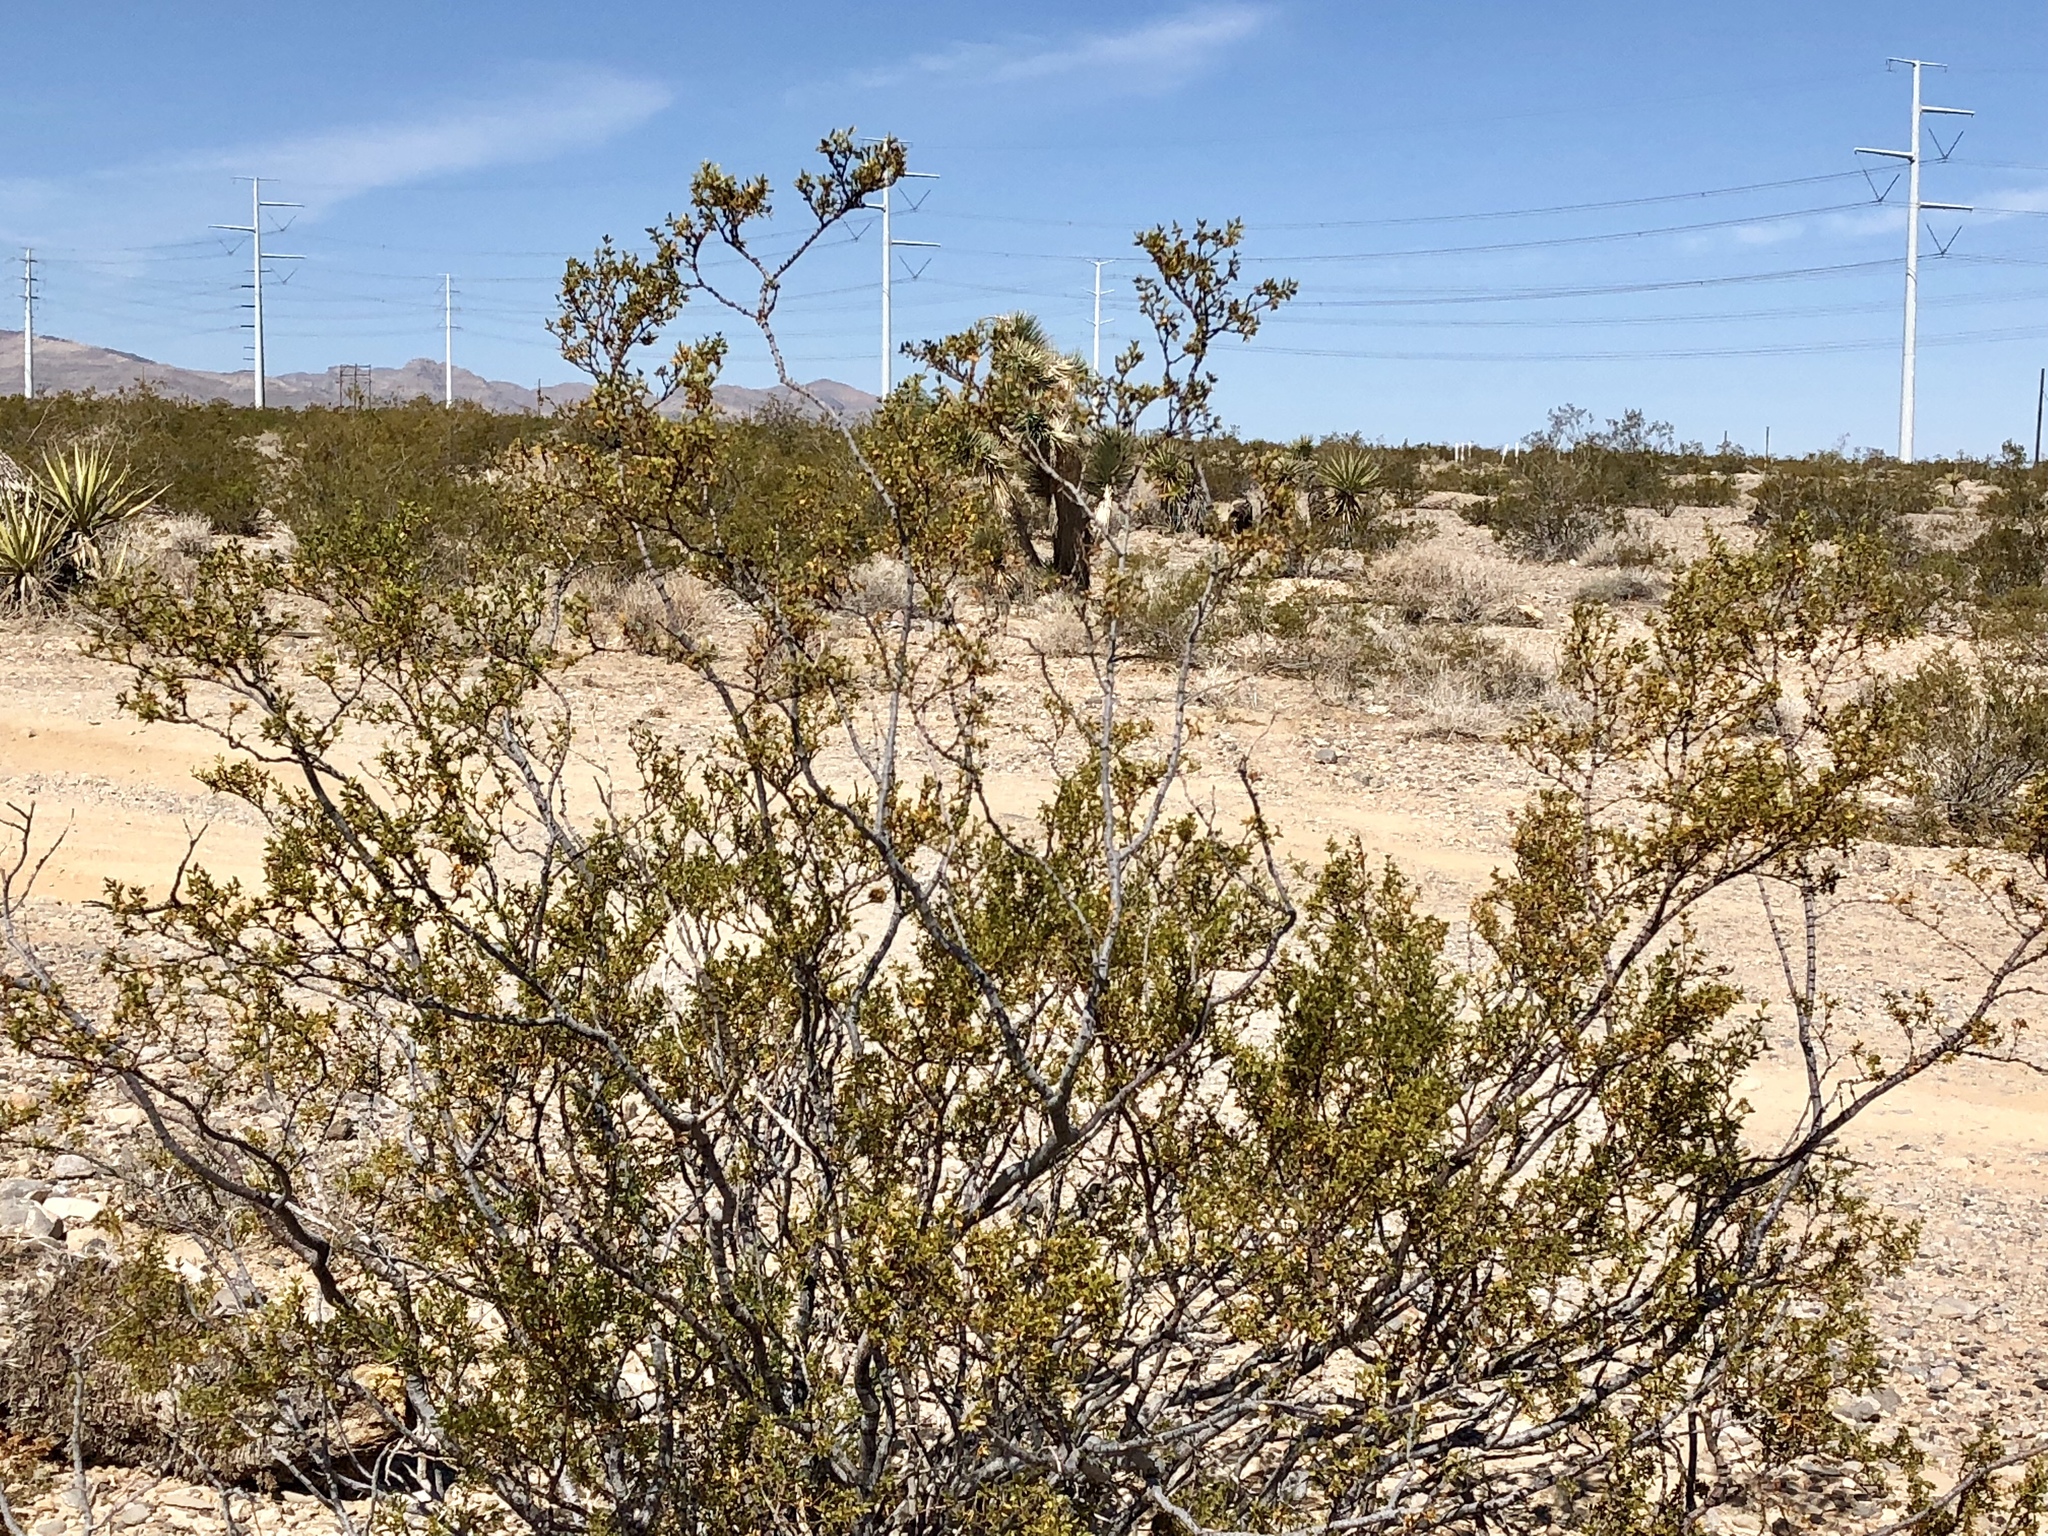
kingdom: Plantae
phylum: Tracheophyta
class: Magnoliopsida
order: Zygophyllales
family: Zygophyllaceae
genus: Larrea
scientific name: Larrea tridentata
